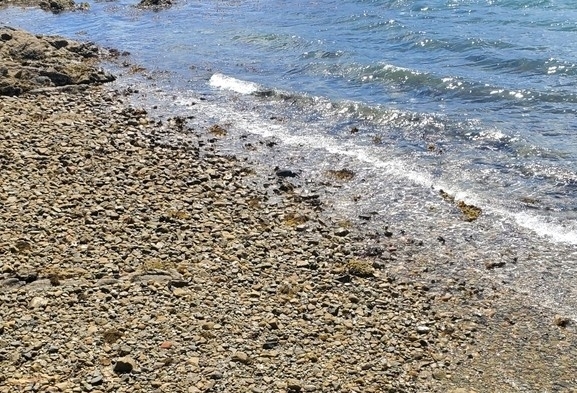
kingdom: Animalia
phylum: Chordata
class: Aves
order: Pelecaniformes
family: Ardeidae
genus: Egretta
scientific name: Egretta sacra
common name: Pacific reef heron
